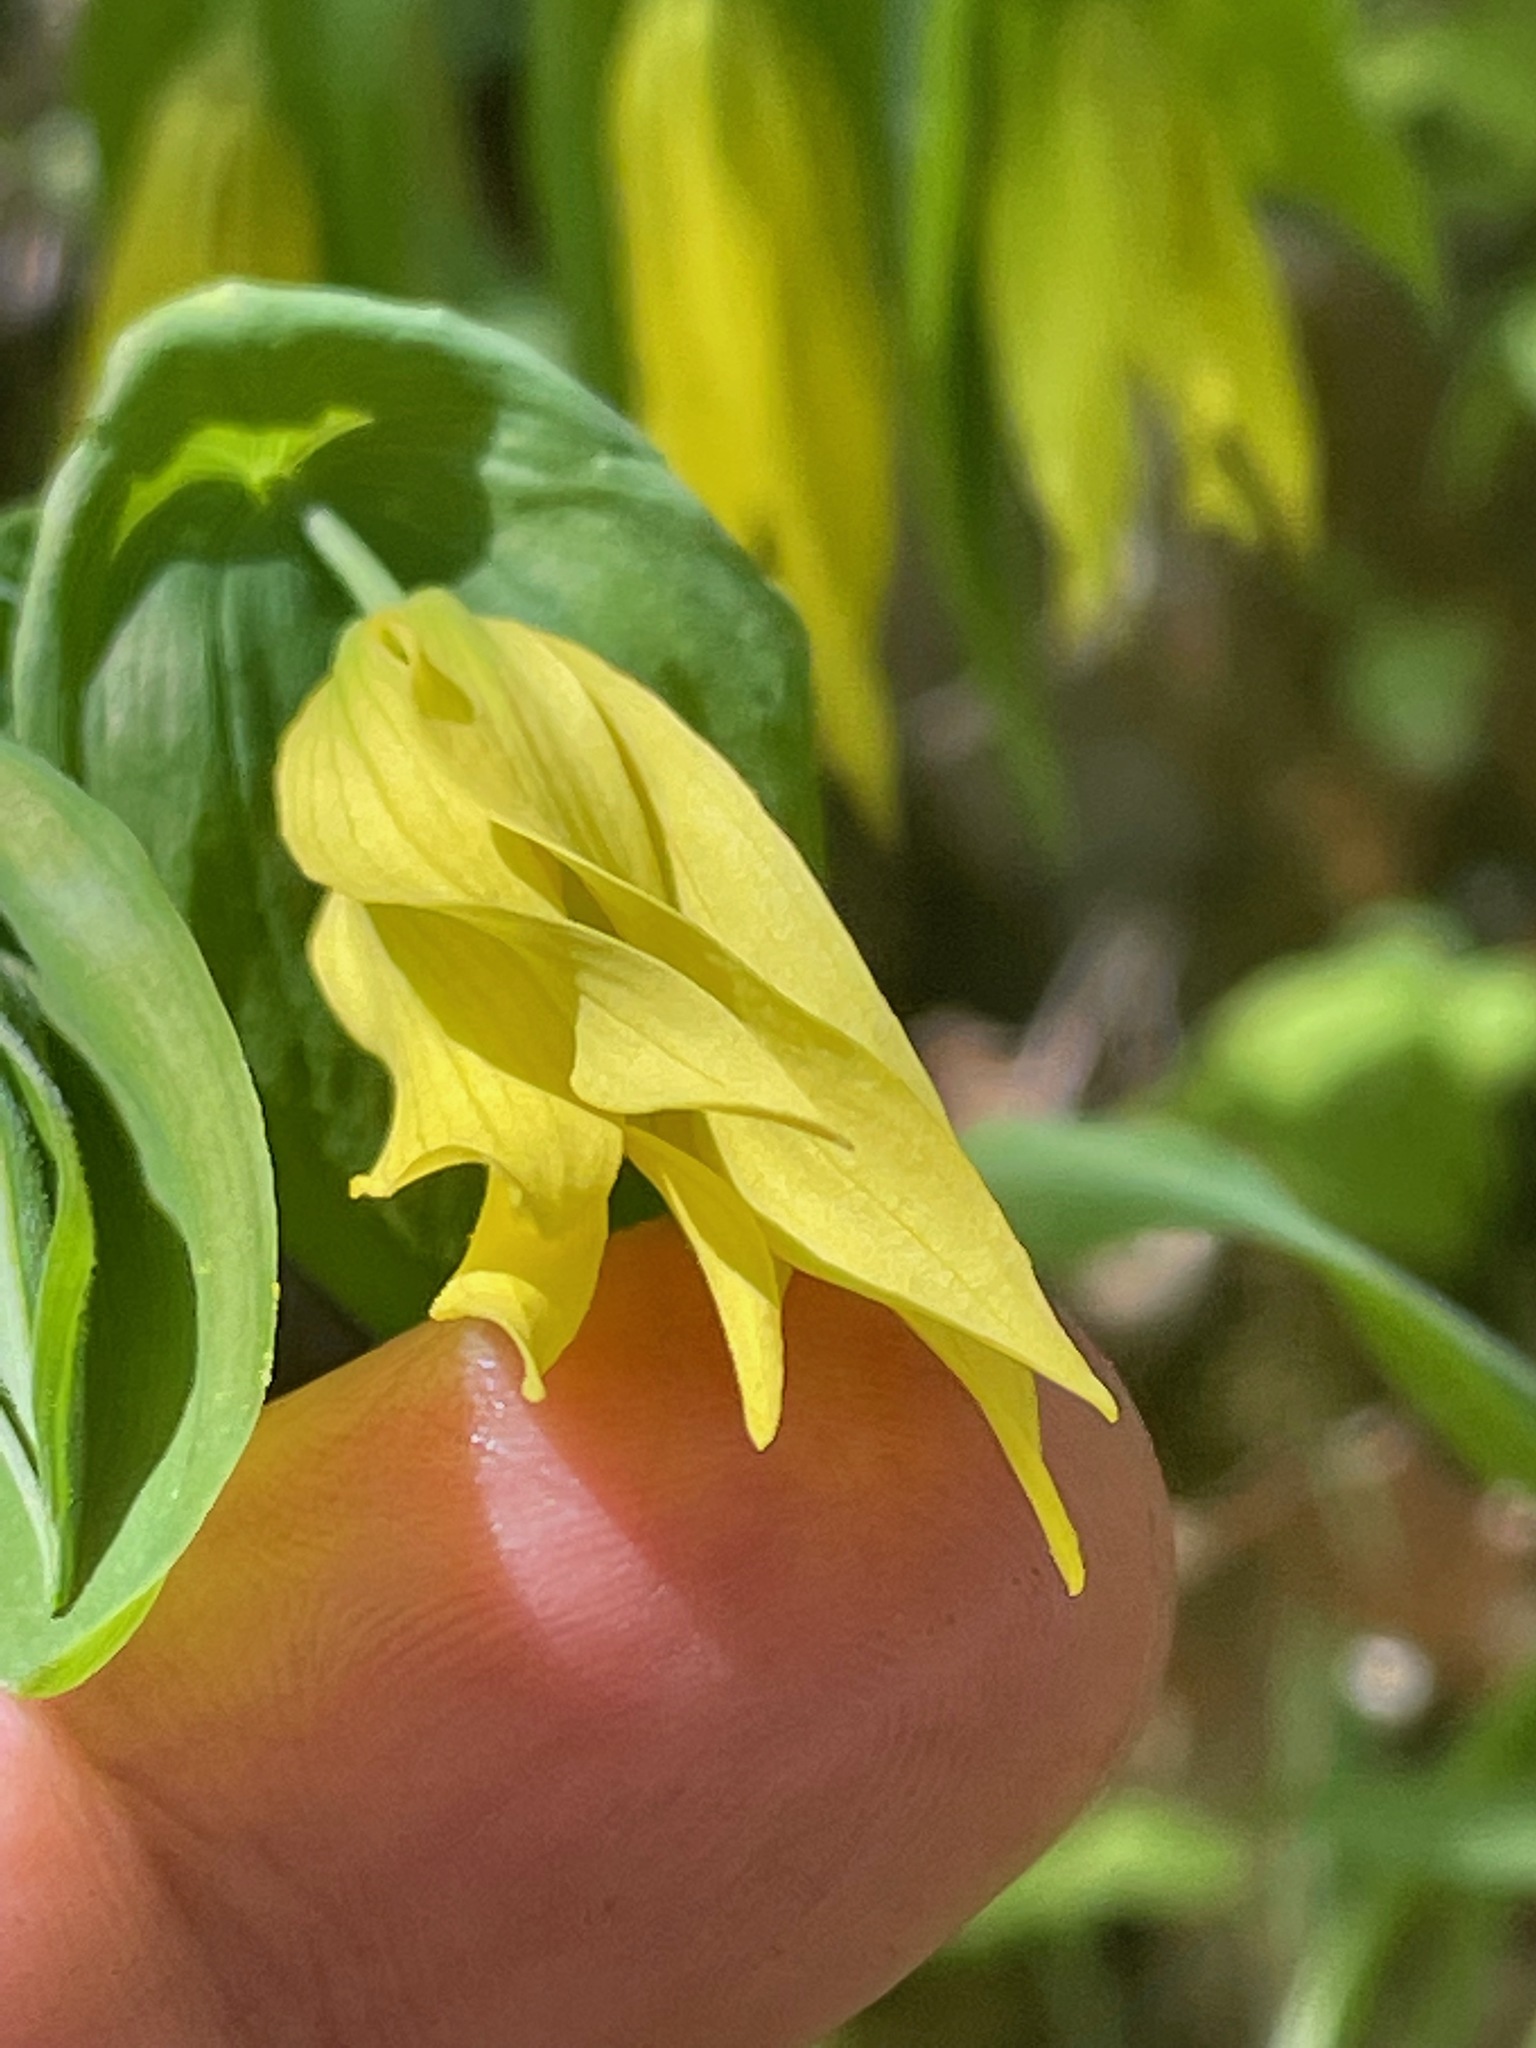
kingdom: Plantae
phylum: Tracheophyta
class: Liliopsida
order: Liliales
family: Colchicaceae
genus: Uvularia
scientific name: Uvularia grandiflora
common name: Bellwort
